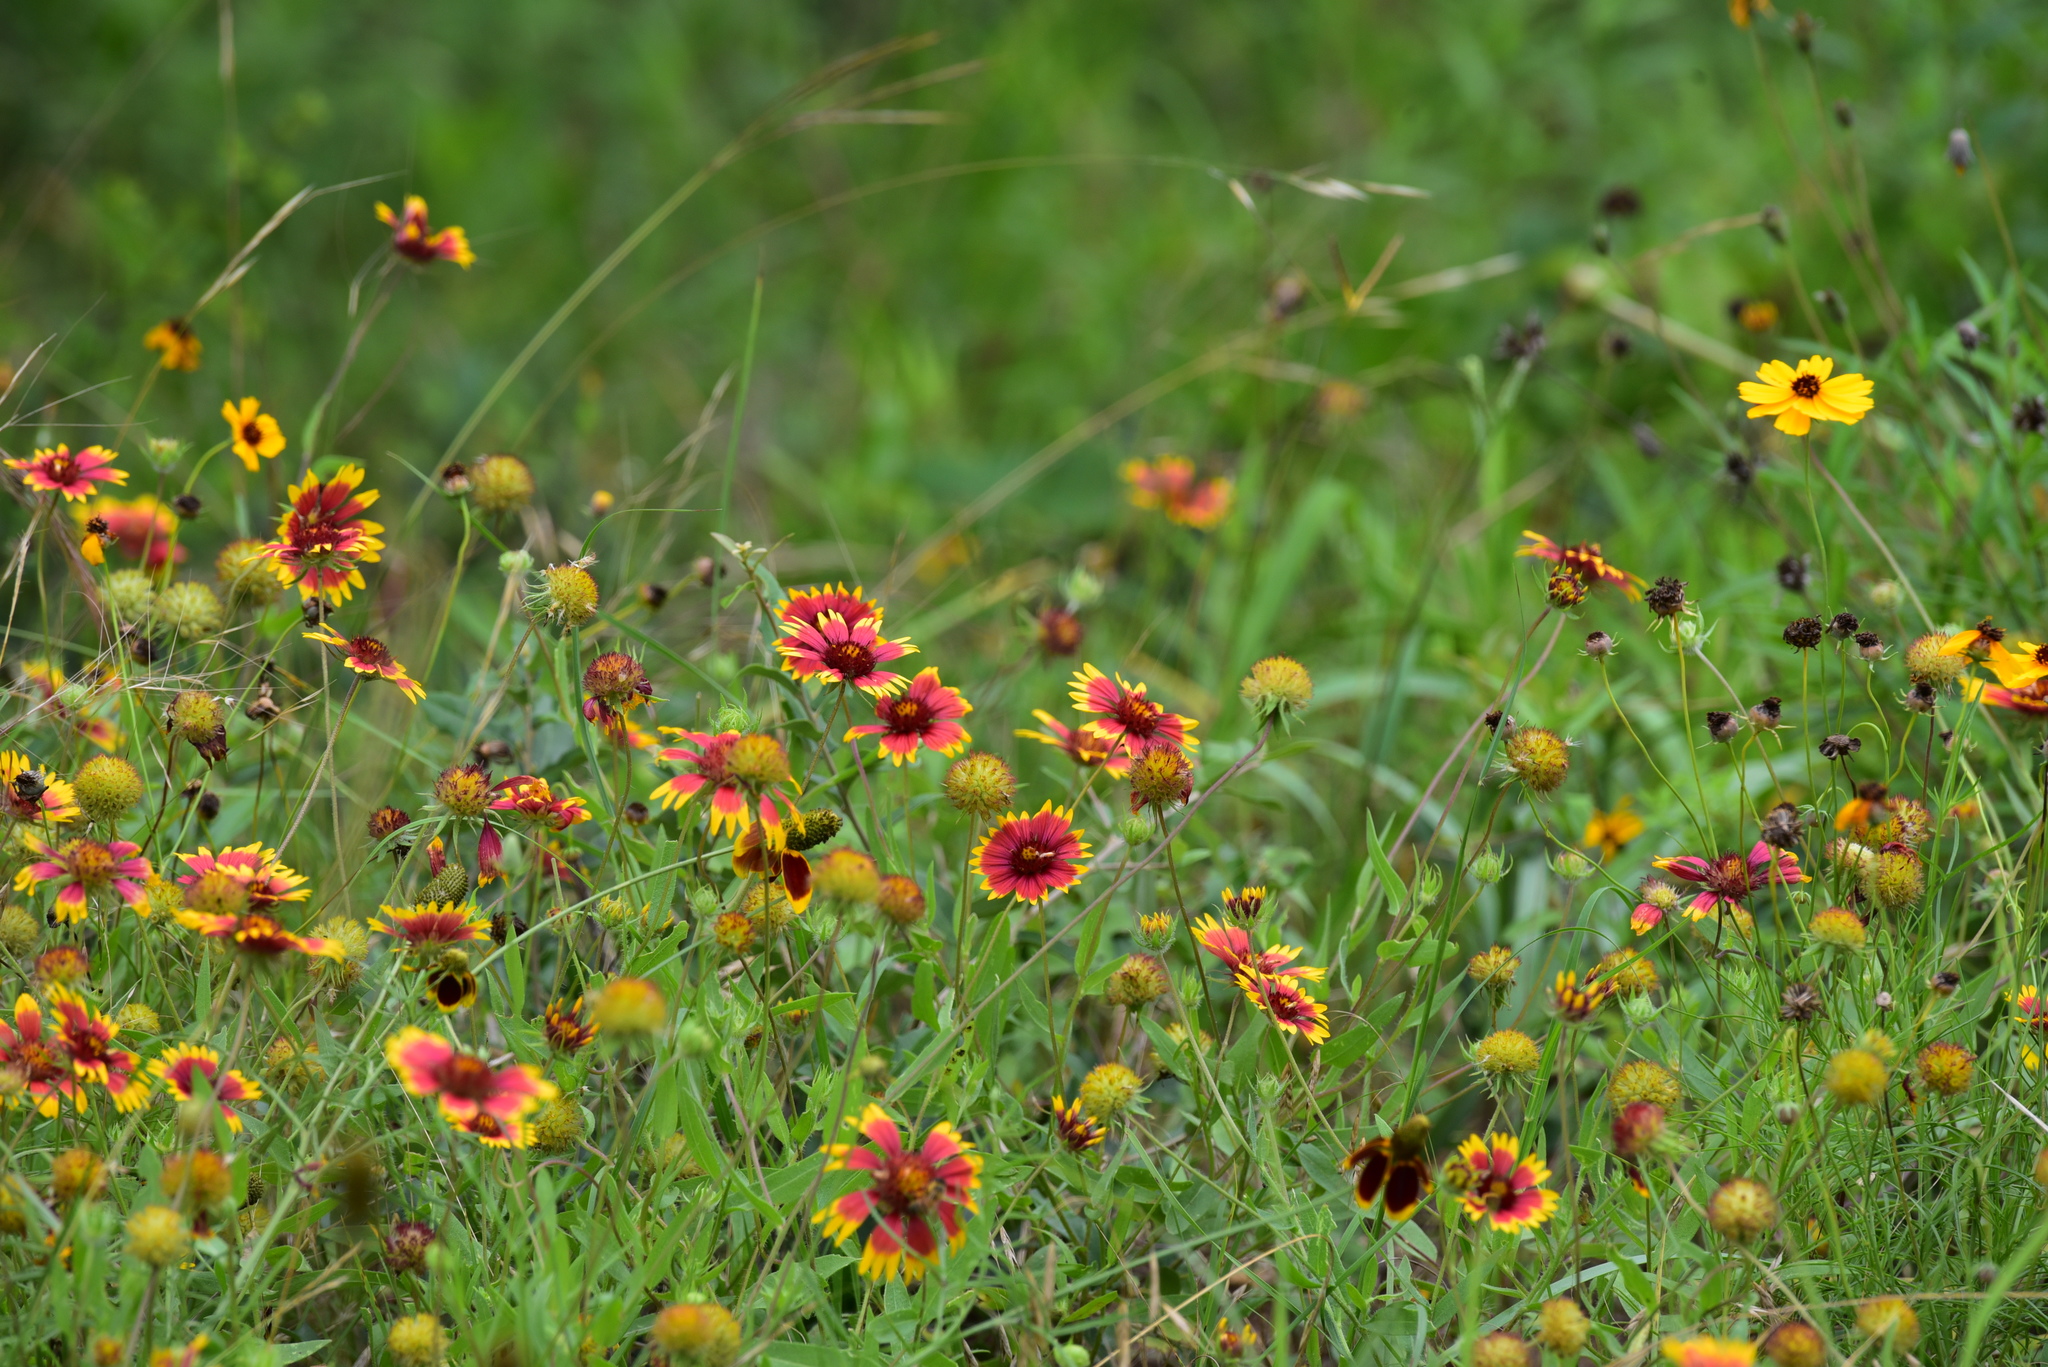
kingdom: Plantae
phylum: Tracheophyta
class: Magnoliopsida
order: Asterales
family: Asteraceae
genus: Gaillardia
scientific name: Gaillardia pulchella
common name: Firewheel
